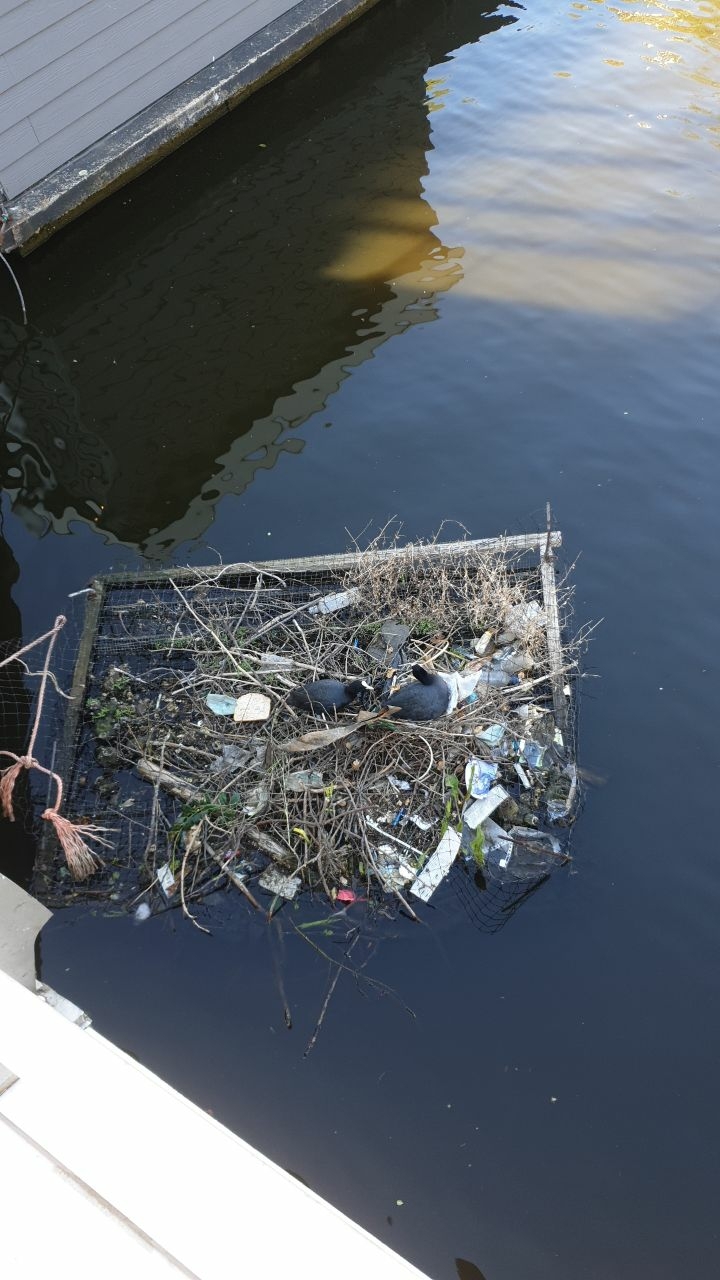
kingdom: Animalia
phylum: Chordata
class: Aves
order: Gruiformes
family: Rallidae
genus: Fulica
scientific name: Fulica atra
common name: Eurasian coot
